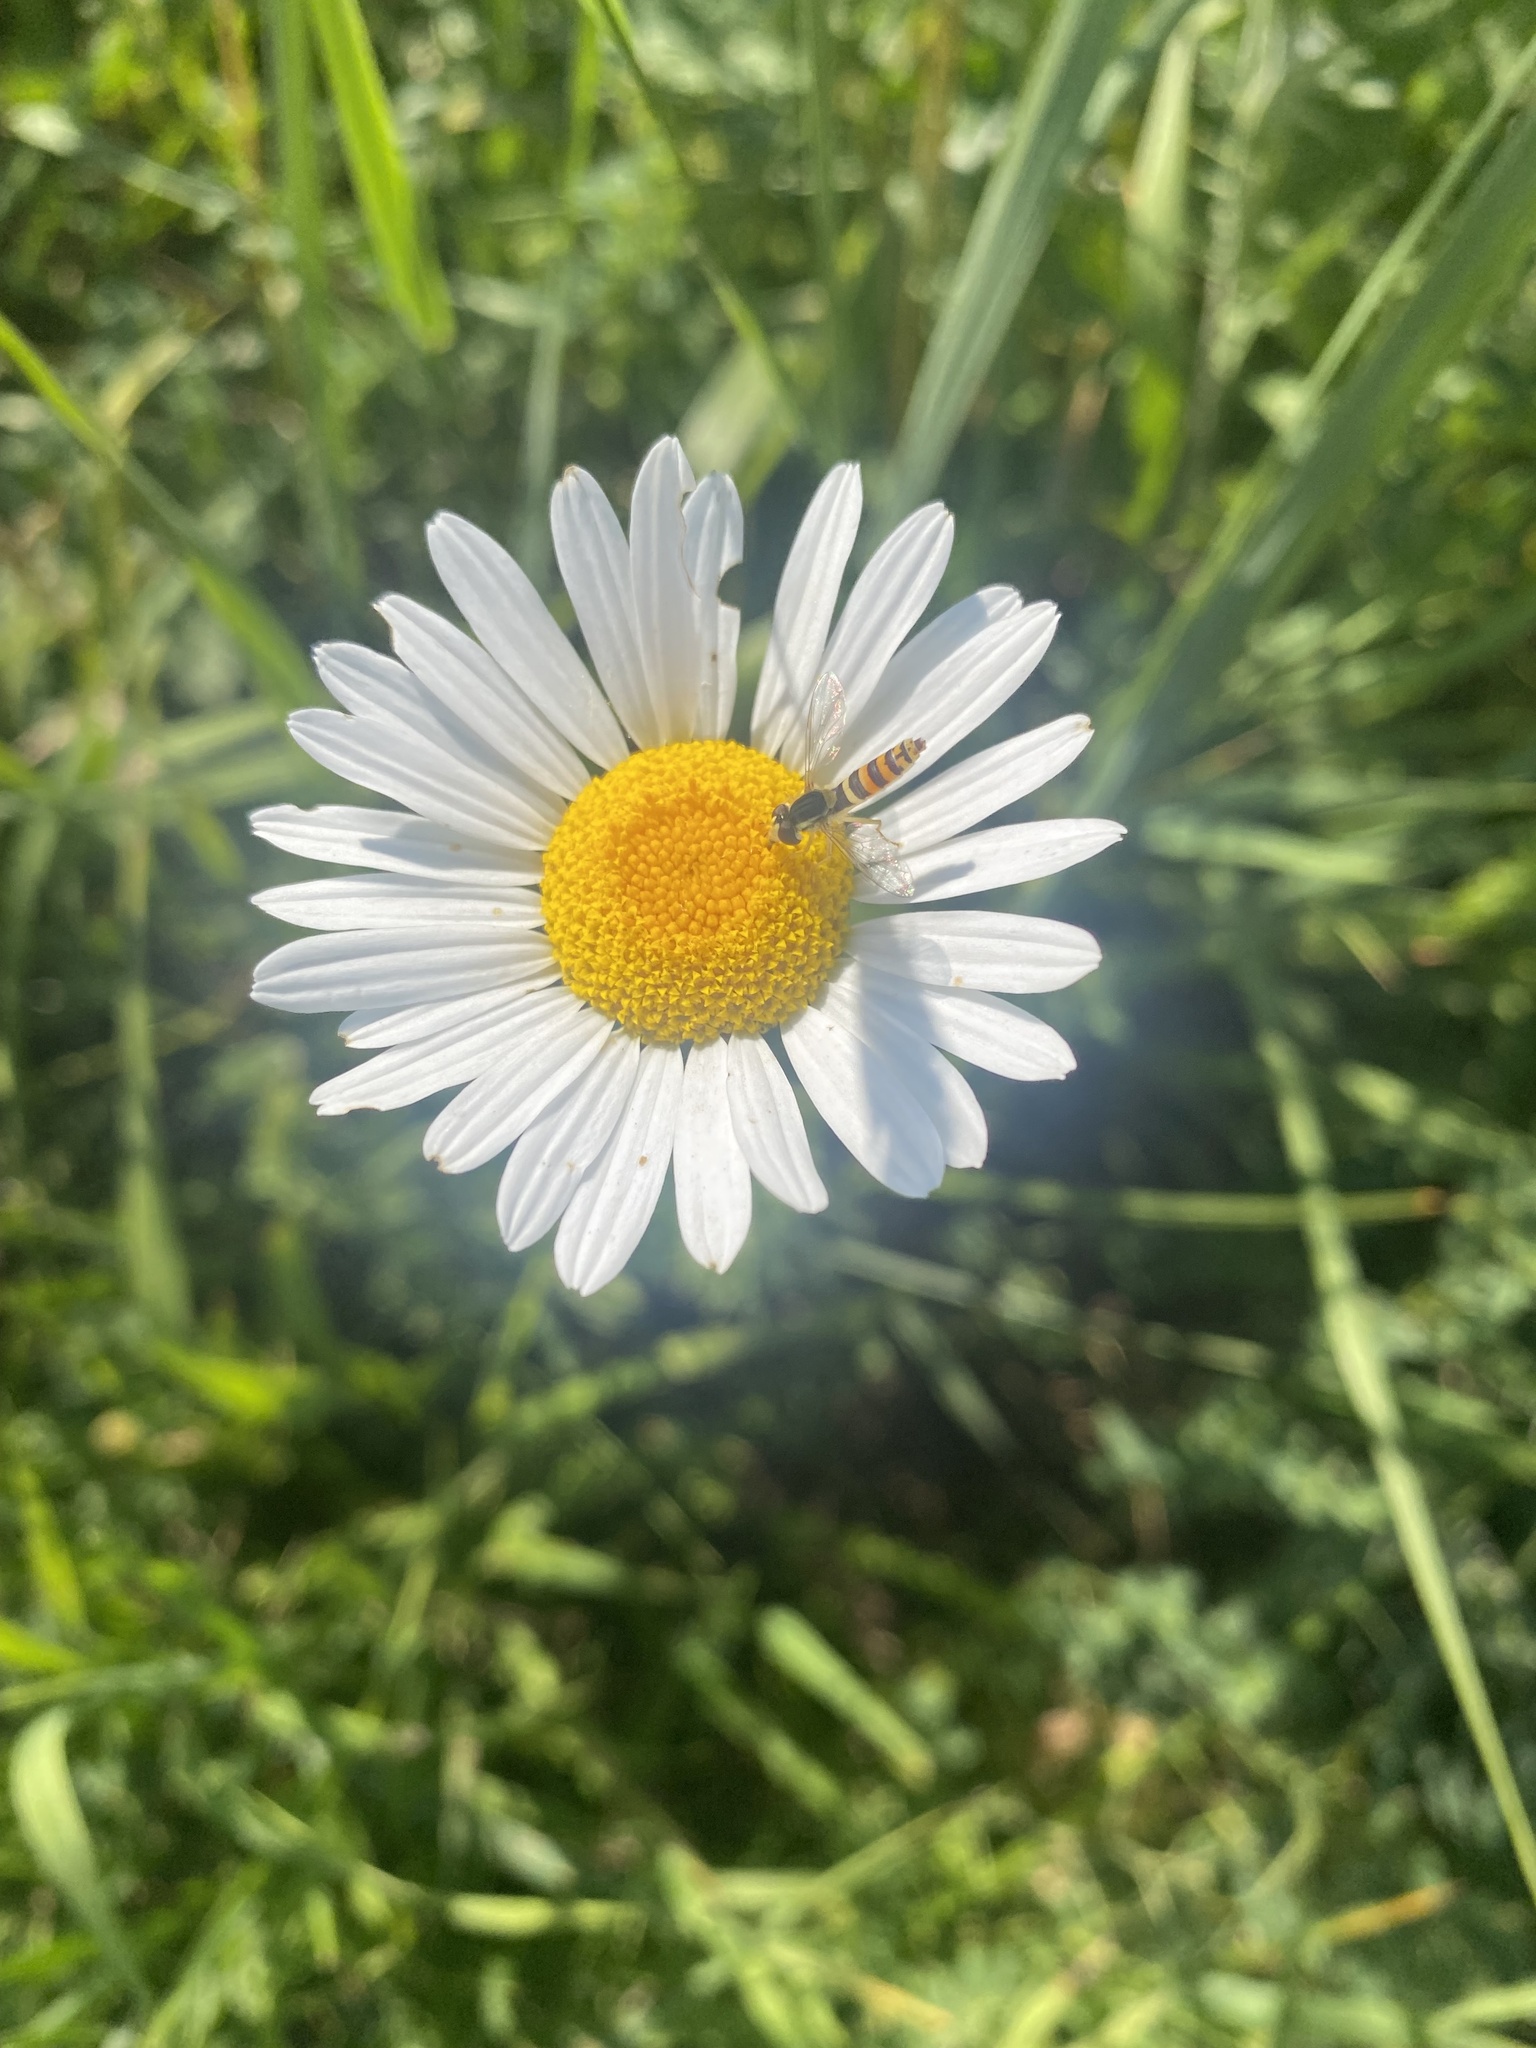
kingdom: Plantae
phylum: Tracheophyta
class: Magnoliopsida
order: Asterales
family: Asteraceae
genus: Cota
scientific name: Cota triumfetti
